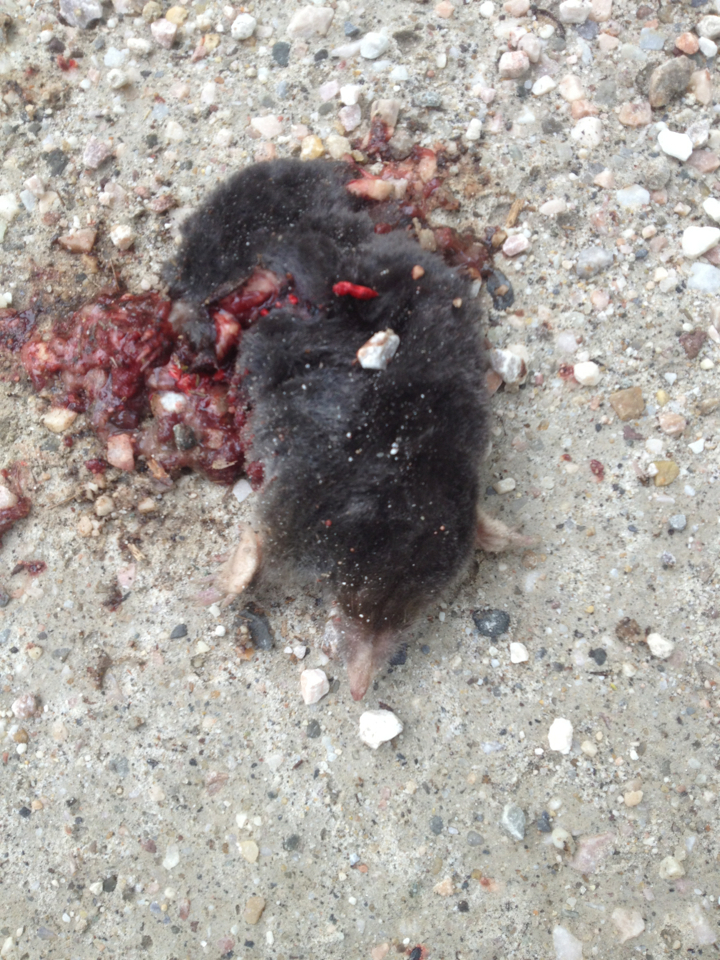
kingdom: Animalia
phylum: Chordata
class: Mammalia
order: Soricomorpha
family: Talpidae
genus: Parascalops
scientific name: Parascalops breweri
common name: Hairy-tailed mole
